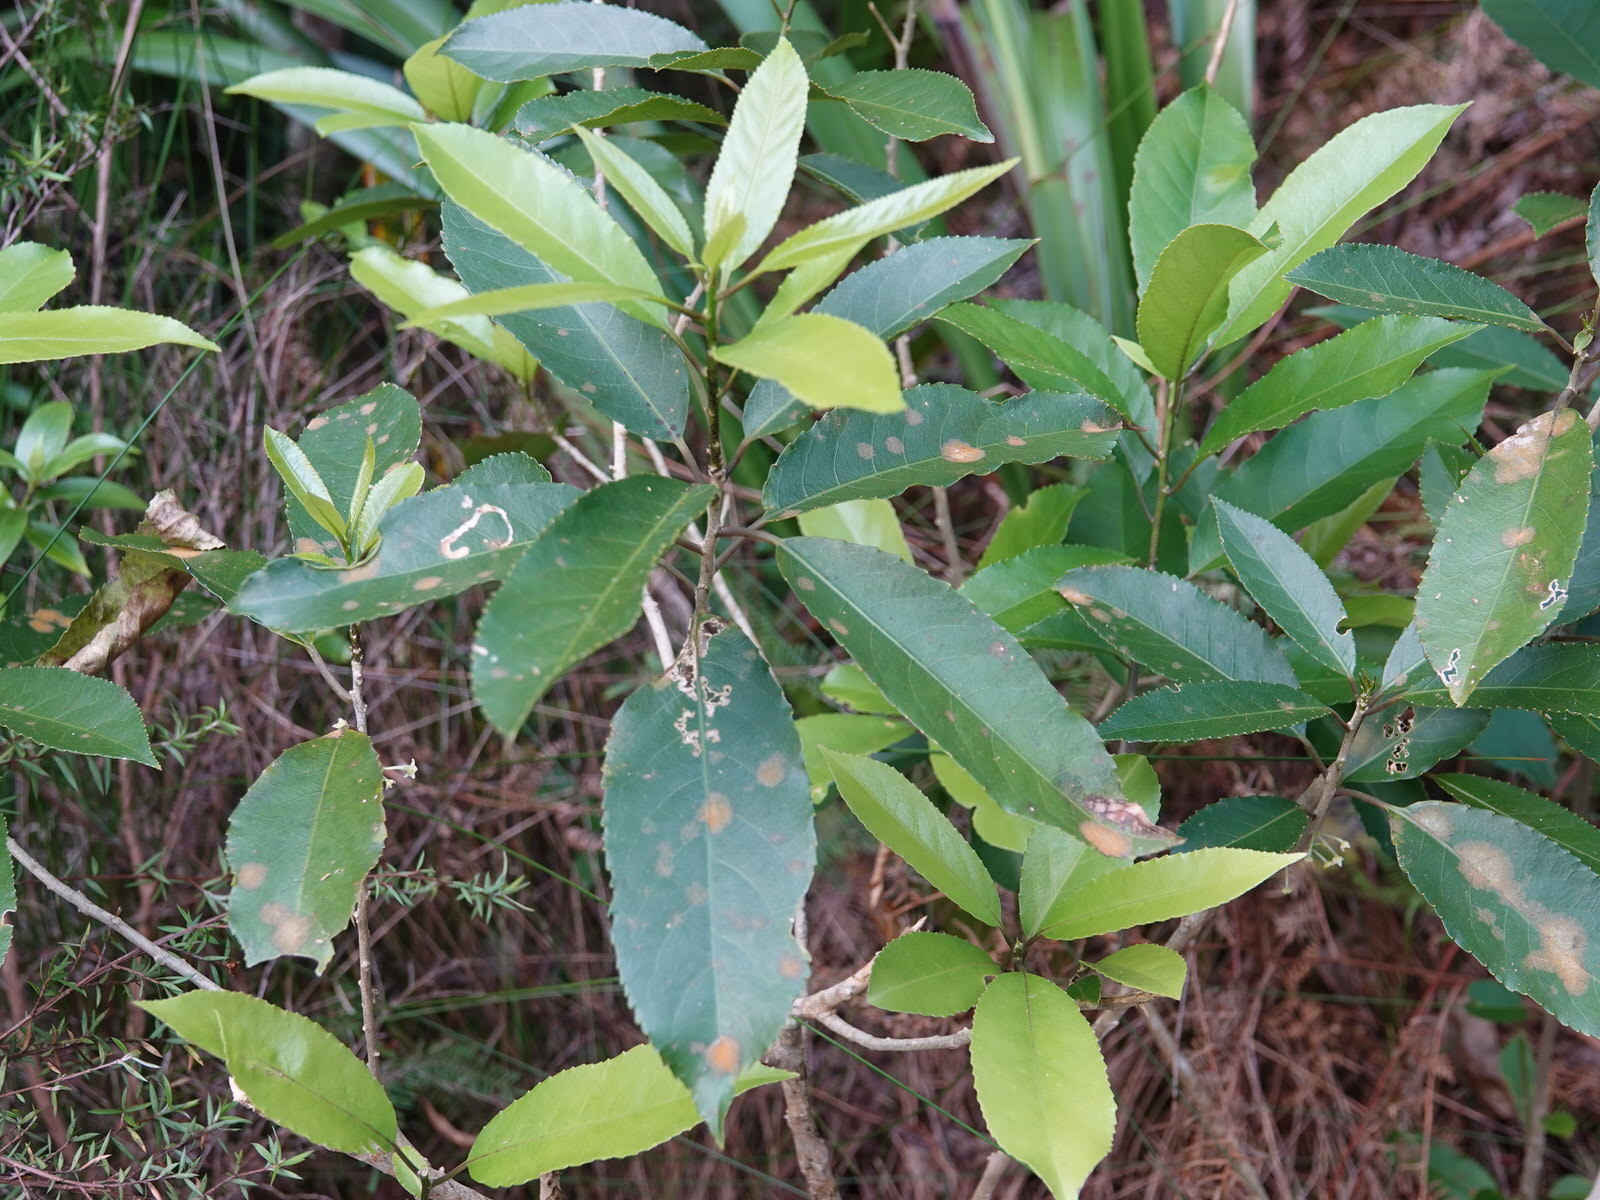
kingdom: Plantae
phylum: Tracheophyta
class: Magnoliopsida
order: Malpighiales
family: Violaceae
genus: Melicytus
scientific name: Melicytus ramiflorus
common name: Mahoe
